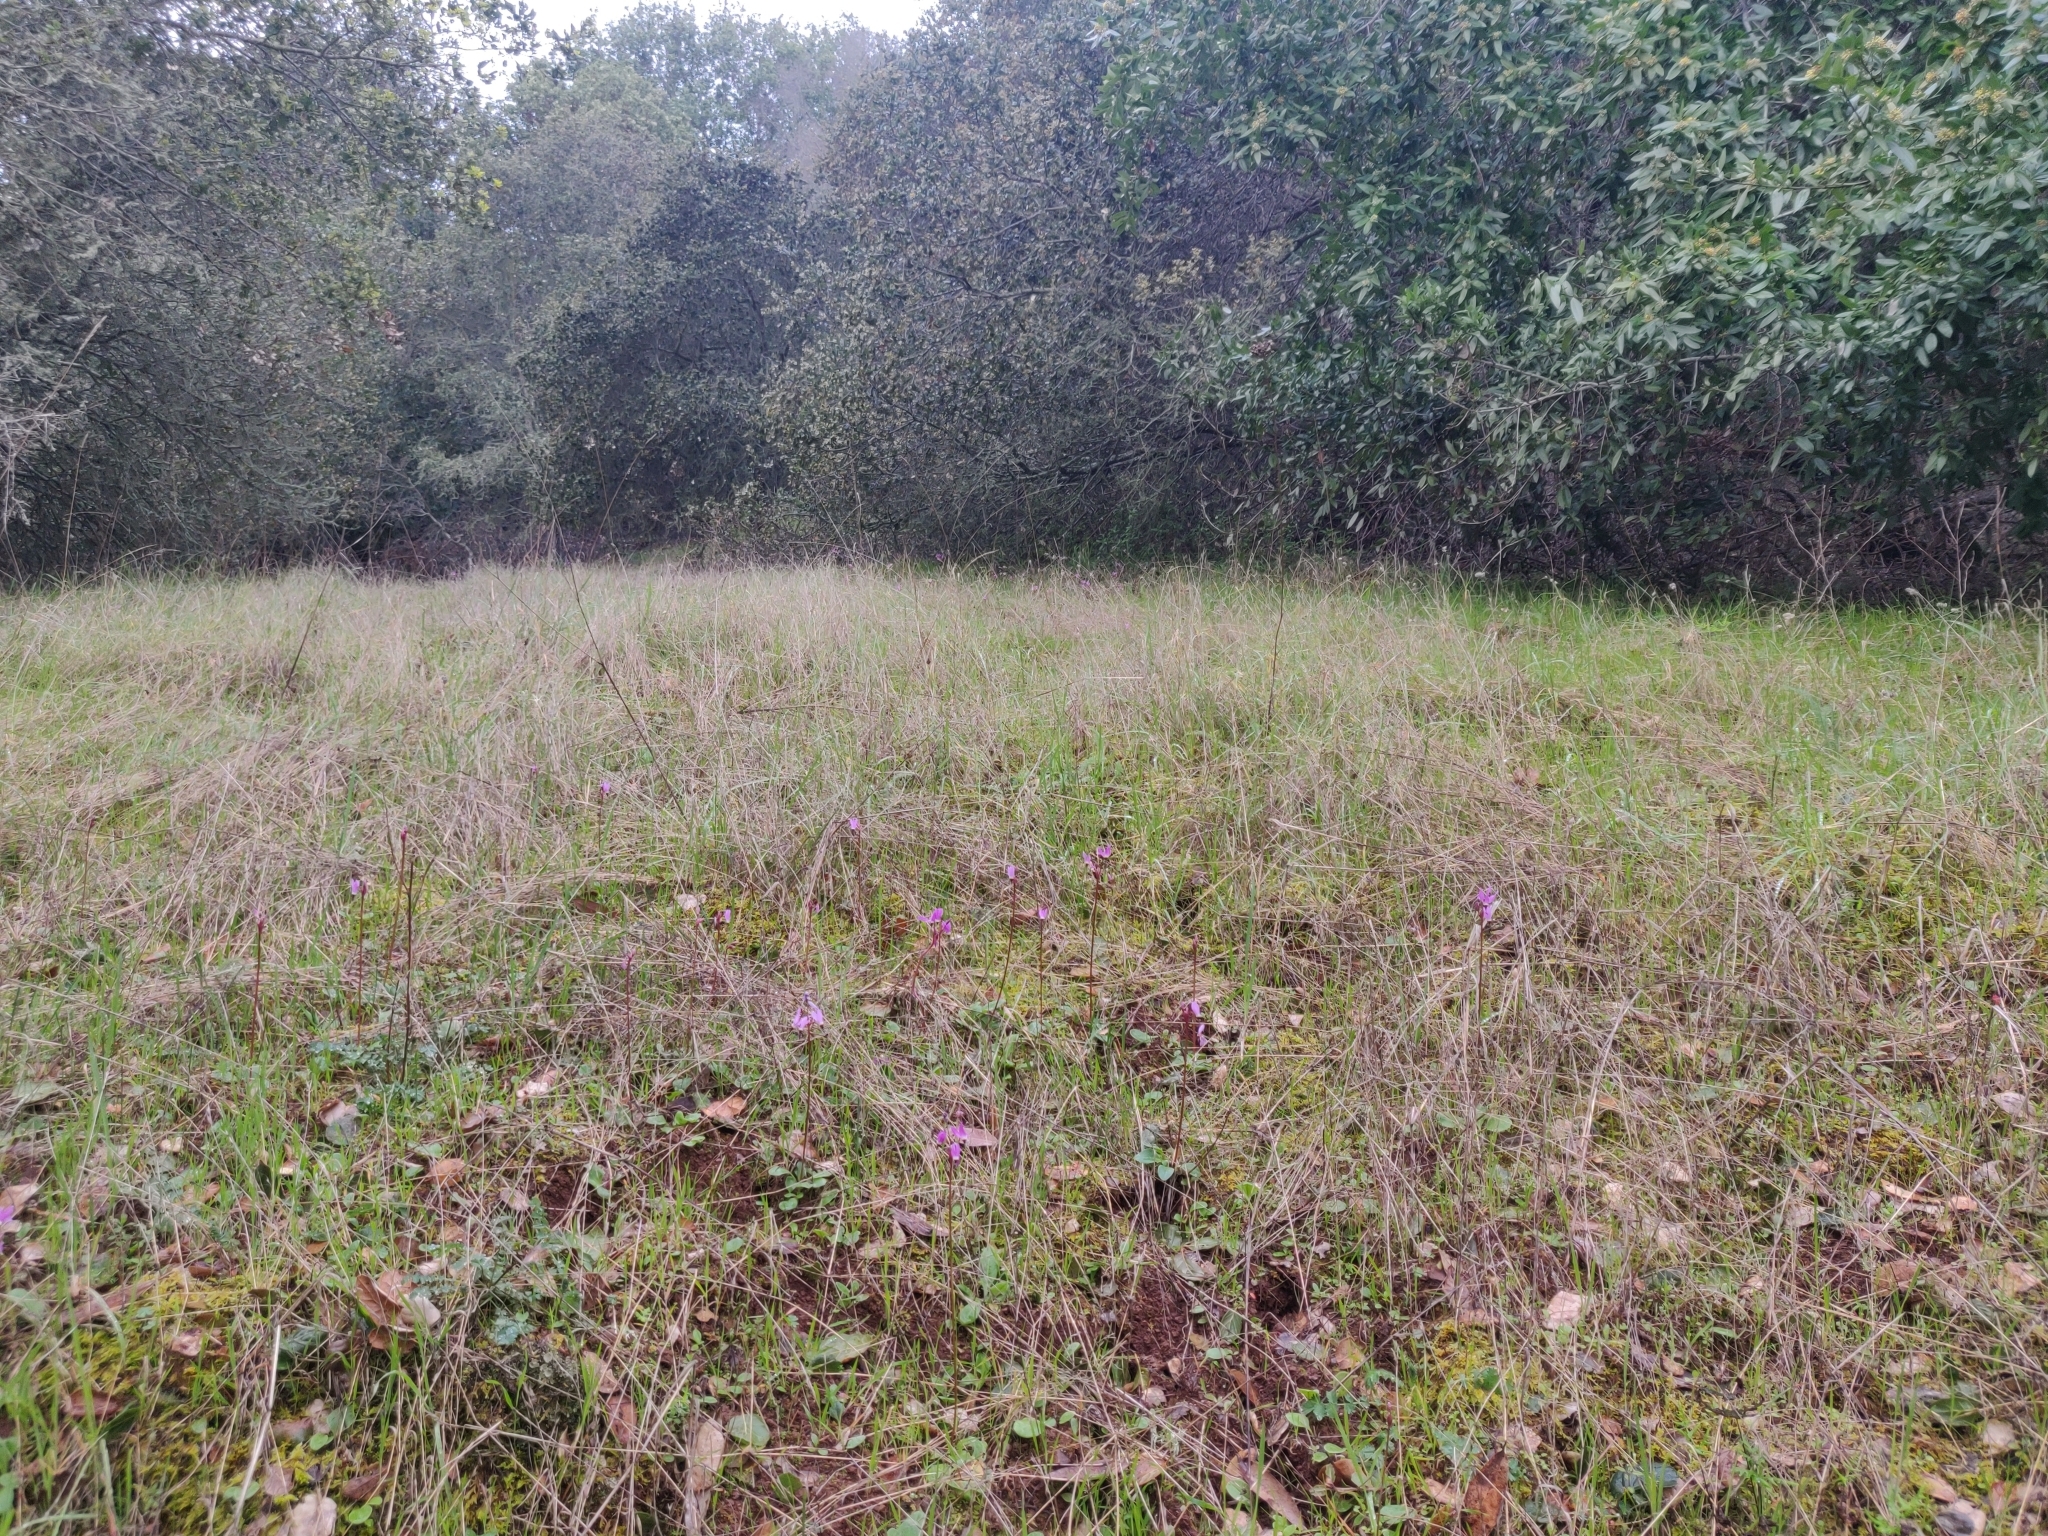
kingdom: Plantae
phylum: Tracheophyta
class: Magnoliopsida
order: Ericales
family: Primulaceae
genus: Dodecatheon
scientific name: Dodecatheon hendersonii
